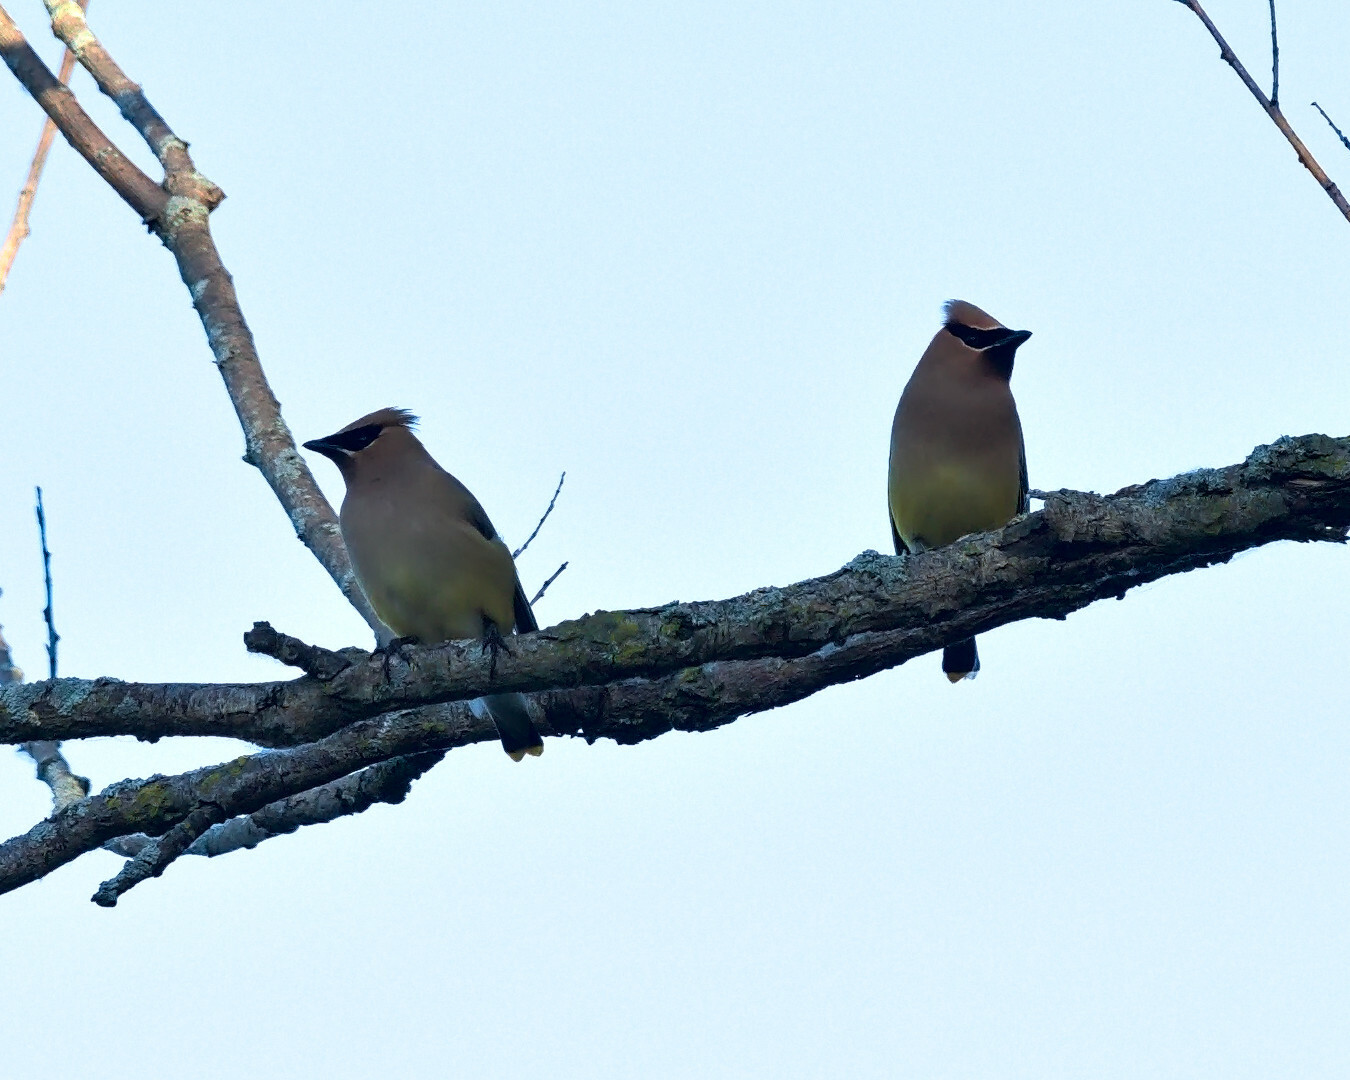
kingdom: Animalia
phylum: Chordata
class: Aves
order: Passeriformes
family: Bombycillidae
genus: Bombycilla
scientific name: Bombycilla cedrorum
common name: Cedar waxwing
